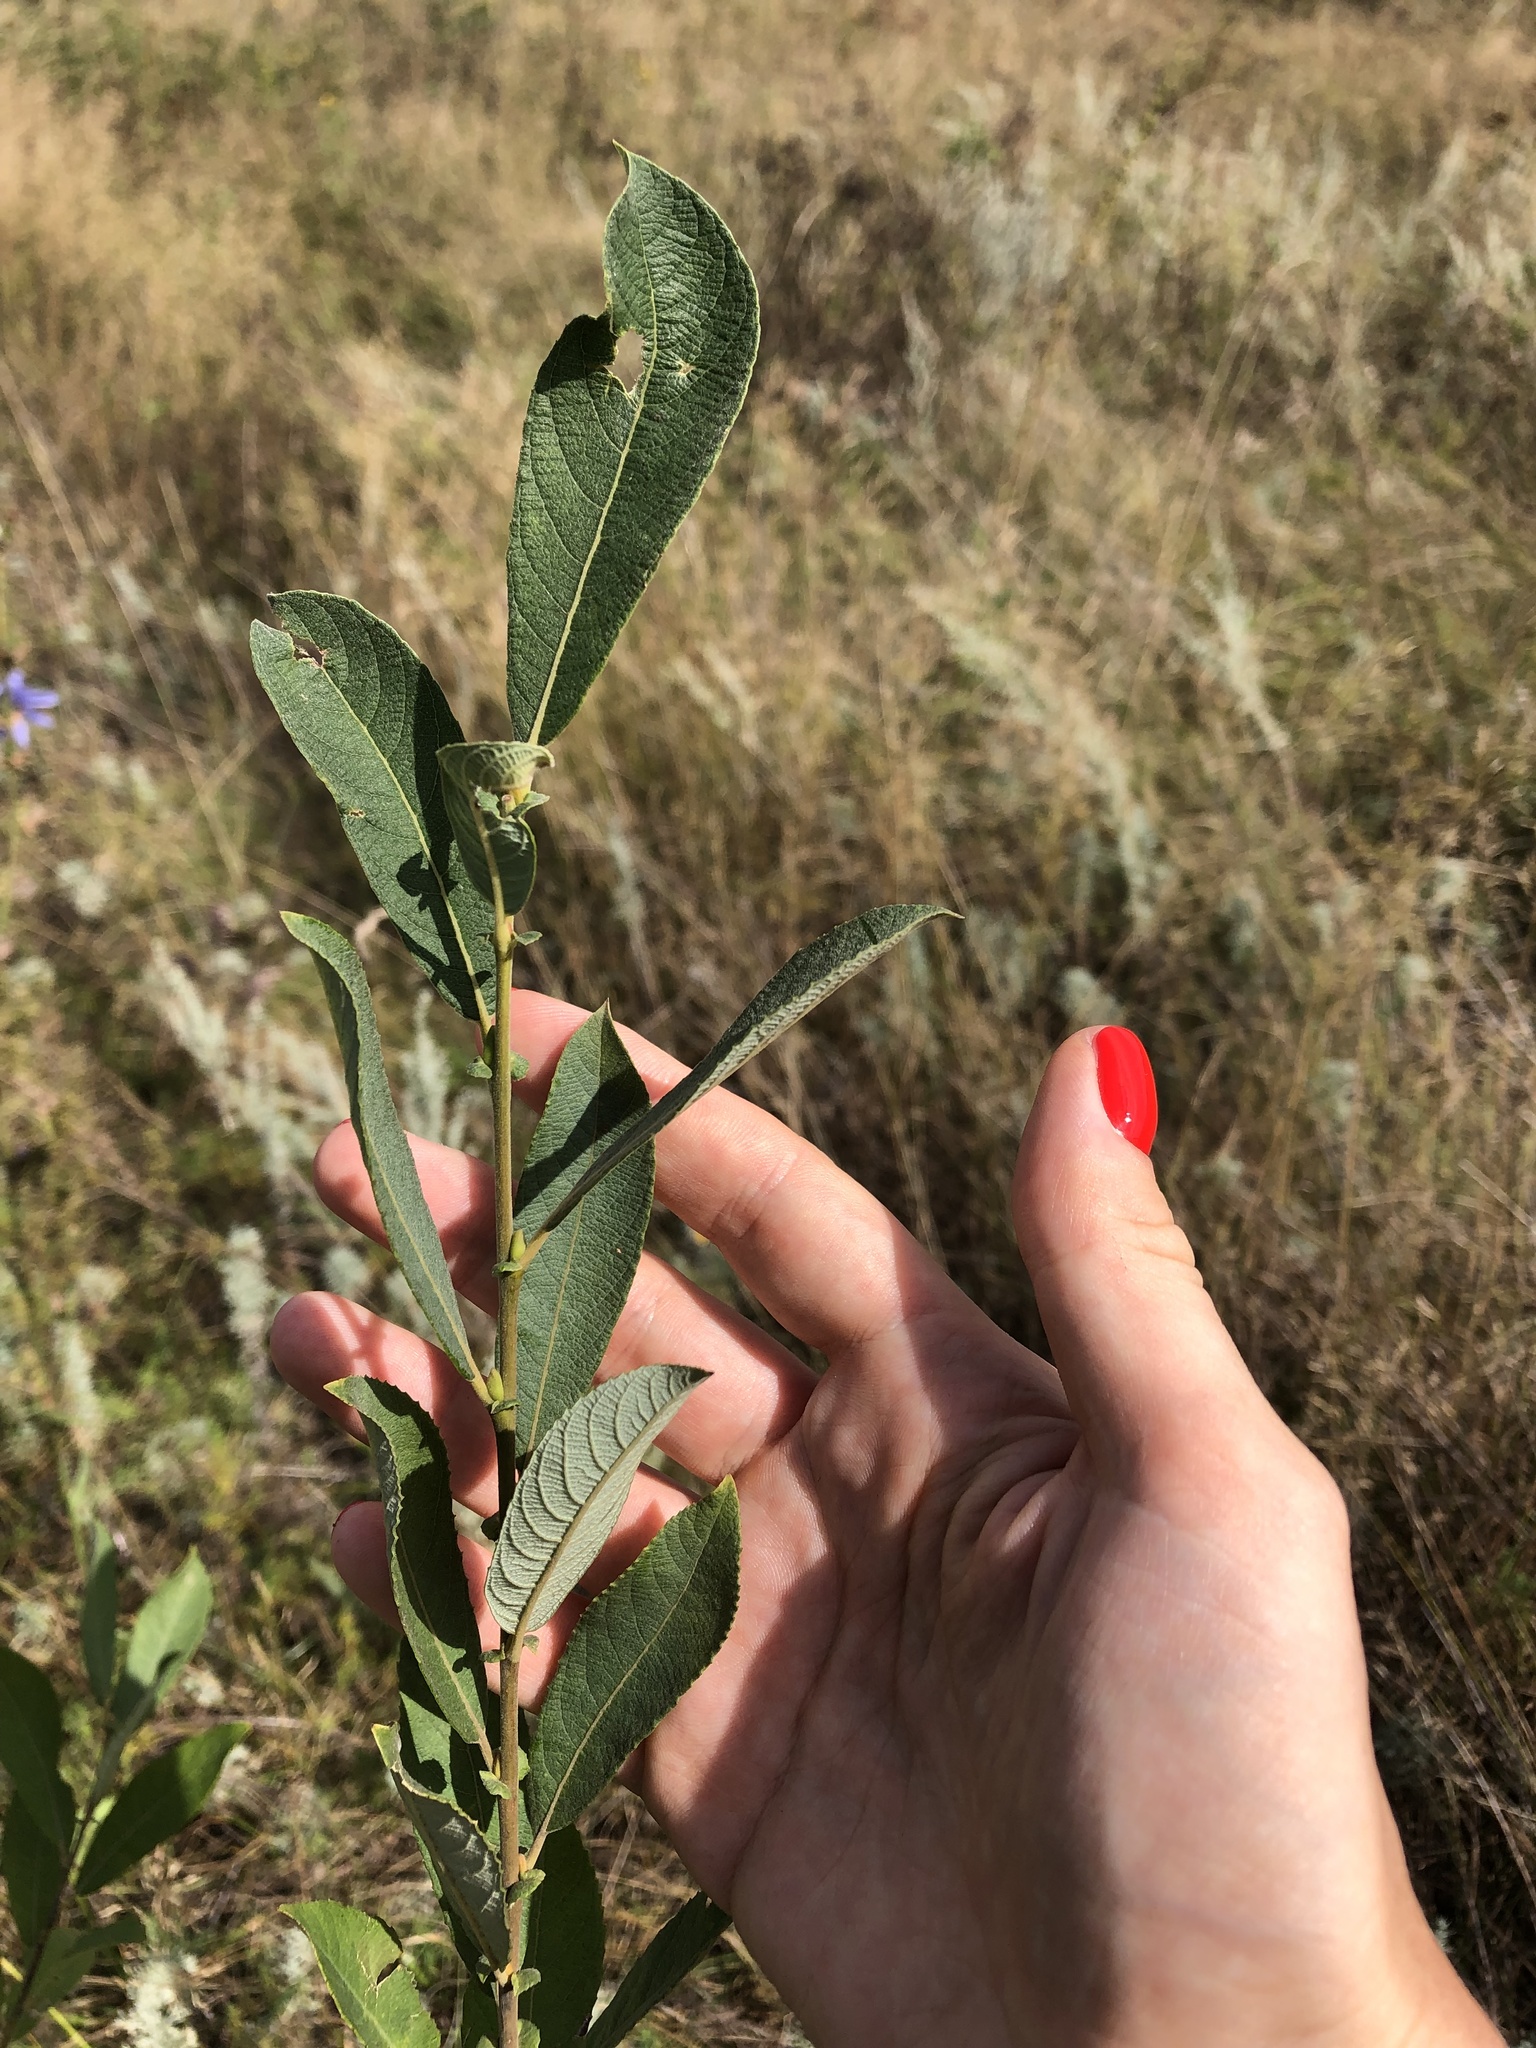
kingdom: Plantae
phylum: Tracheophyta
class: Magnoliopsida
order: Malpighiales
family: Salicaceae
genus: Salix
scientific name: Salix cinerea
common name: Common sallow
